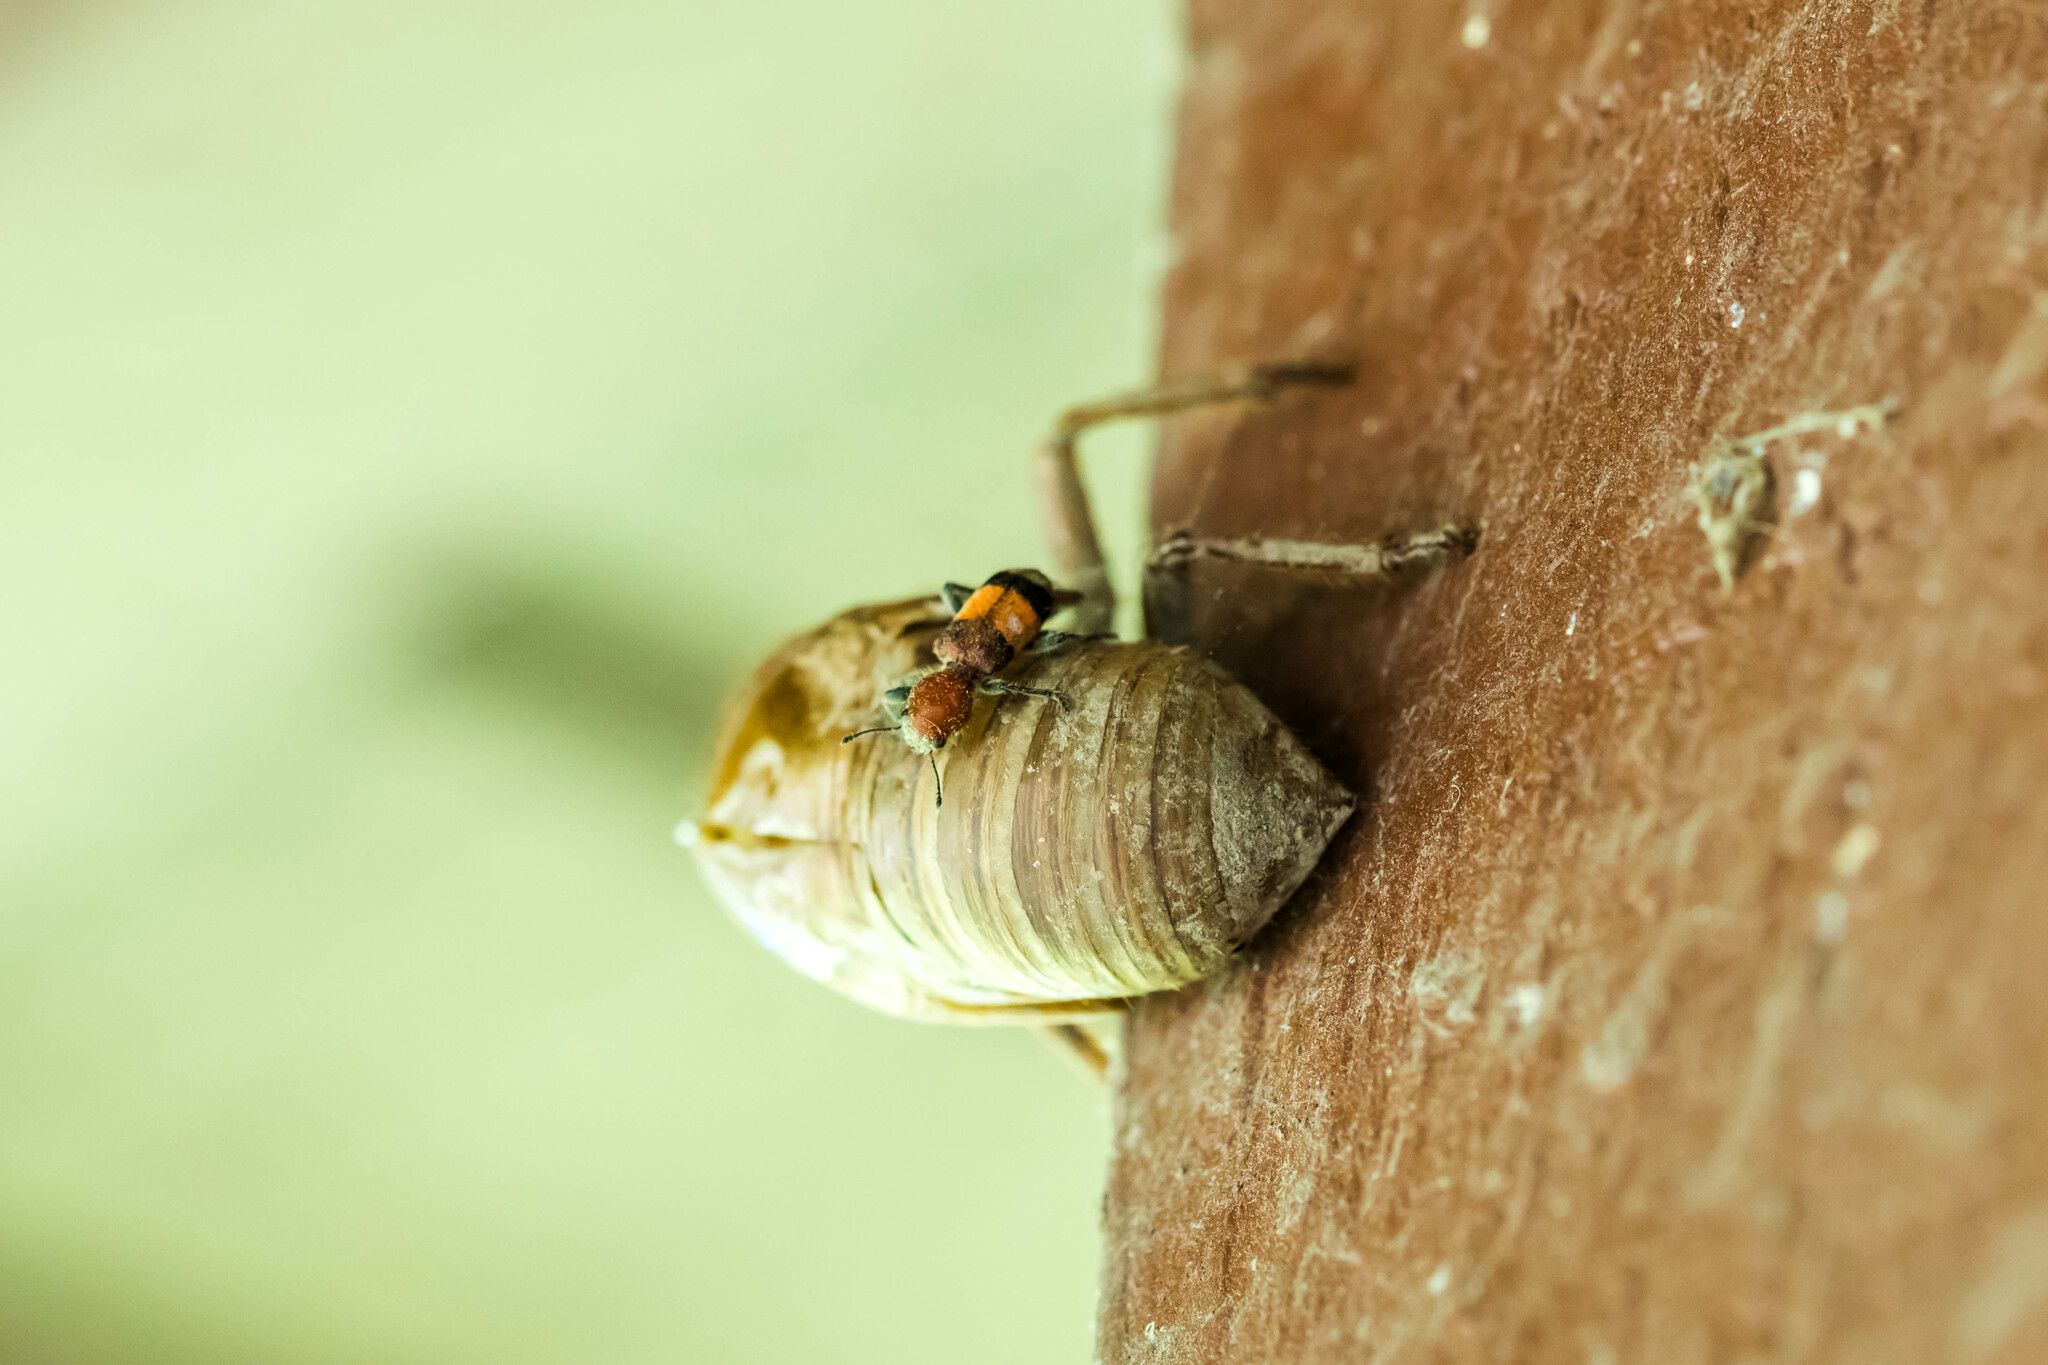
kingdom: Animalia
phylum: Arthropoda
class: Insecta
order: Coleoptera
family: Cleridae
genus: Enoclerus
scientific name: Enoclerus ichneumoneus
